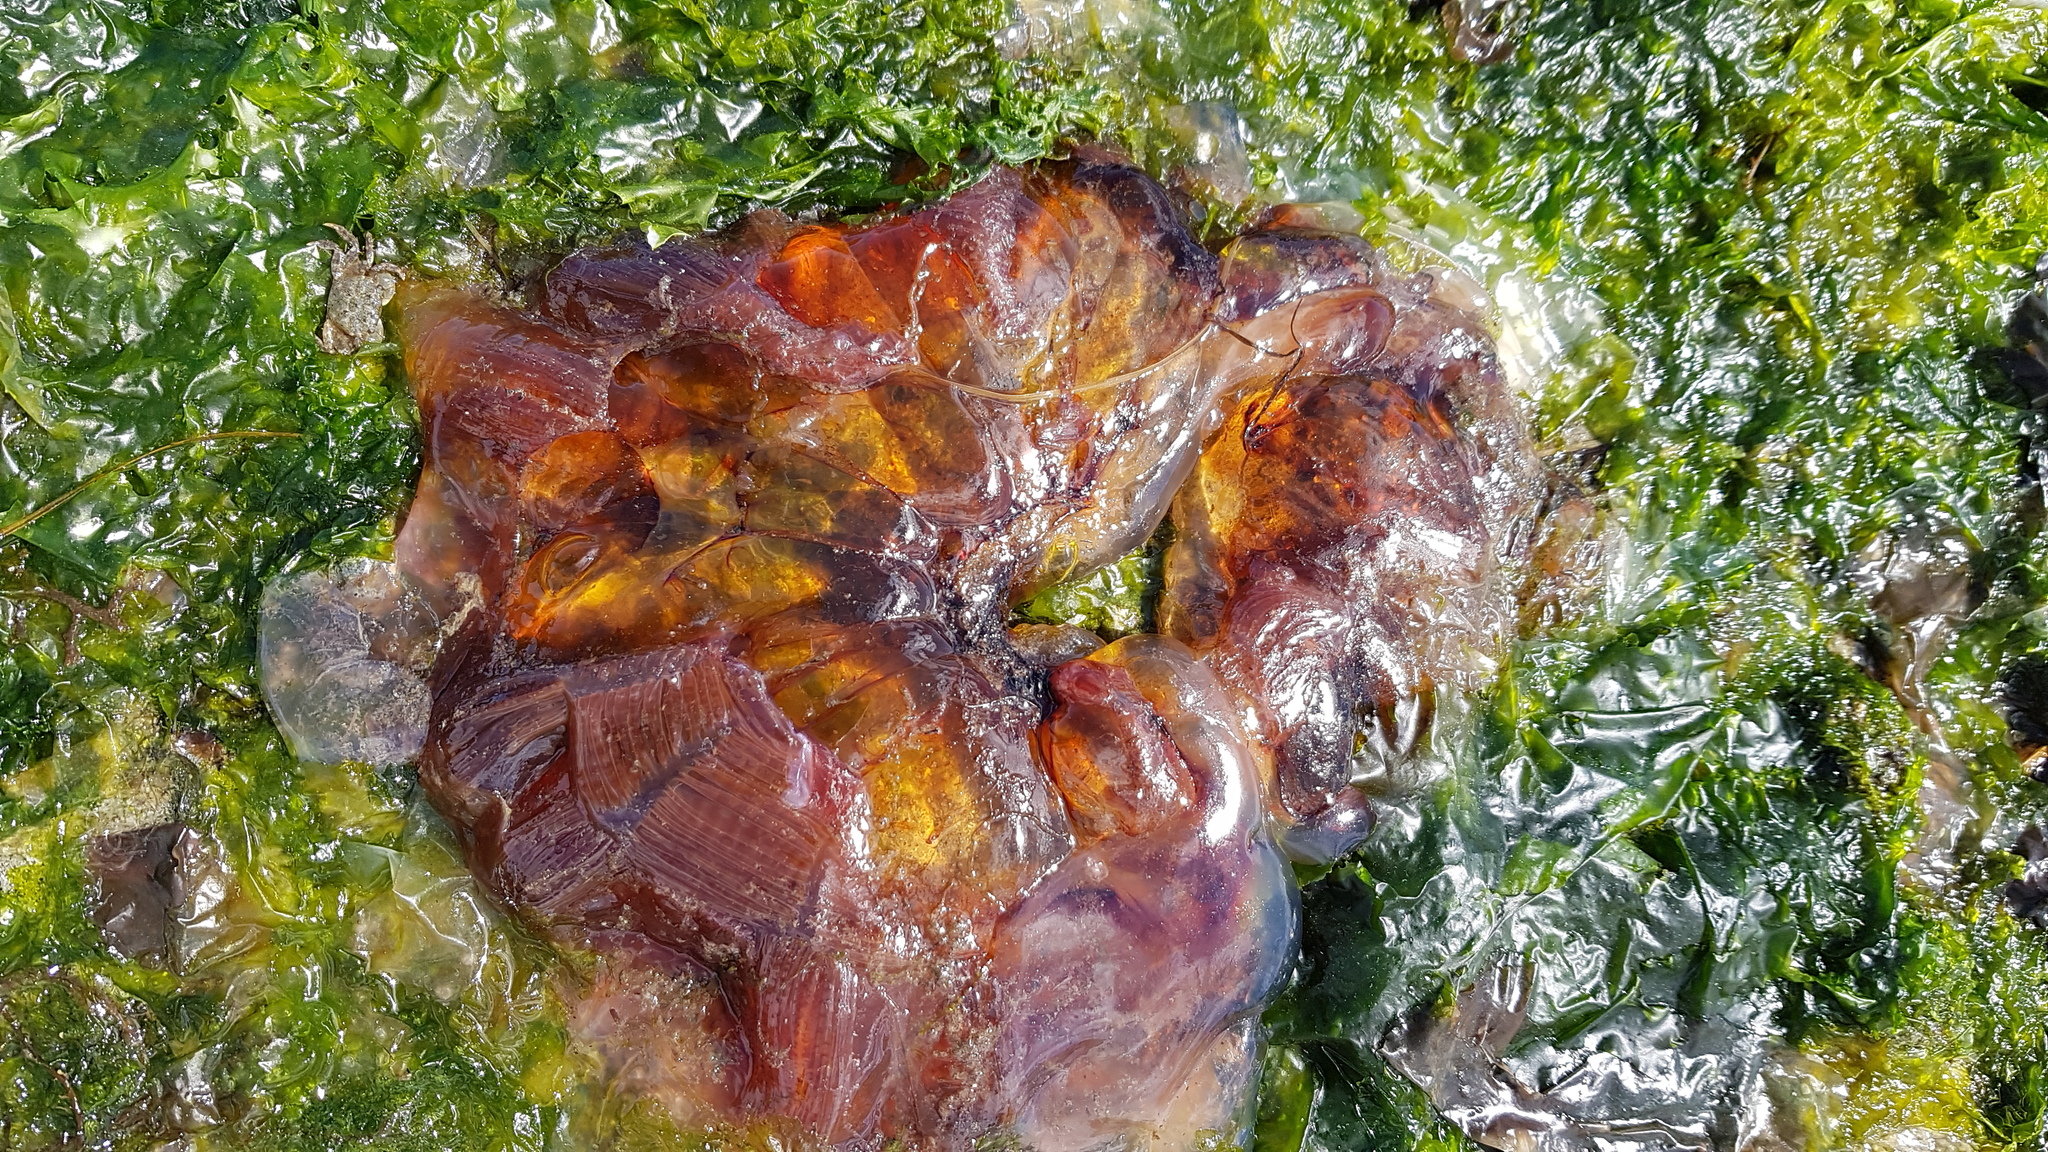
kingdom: Animalia
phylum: Cnidaria
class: Scyphozoa
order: Semaeostomeae
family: Cyaneidae
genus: Cyanea
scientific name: Cyanea ferruginea
